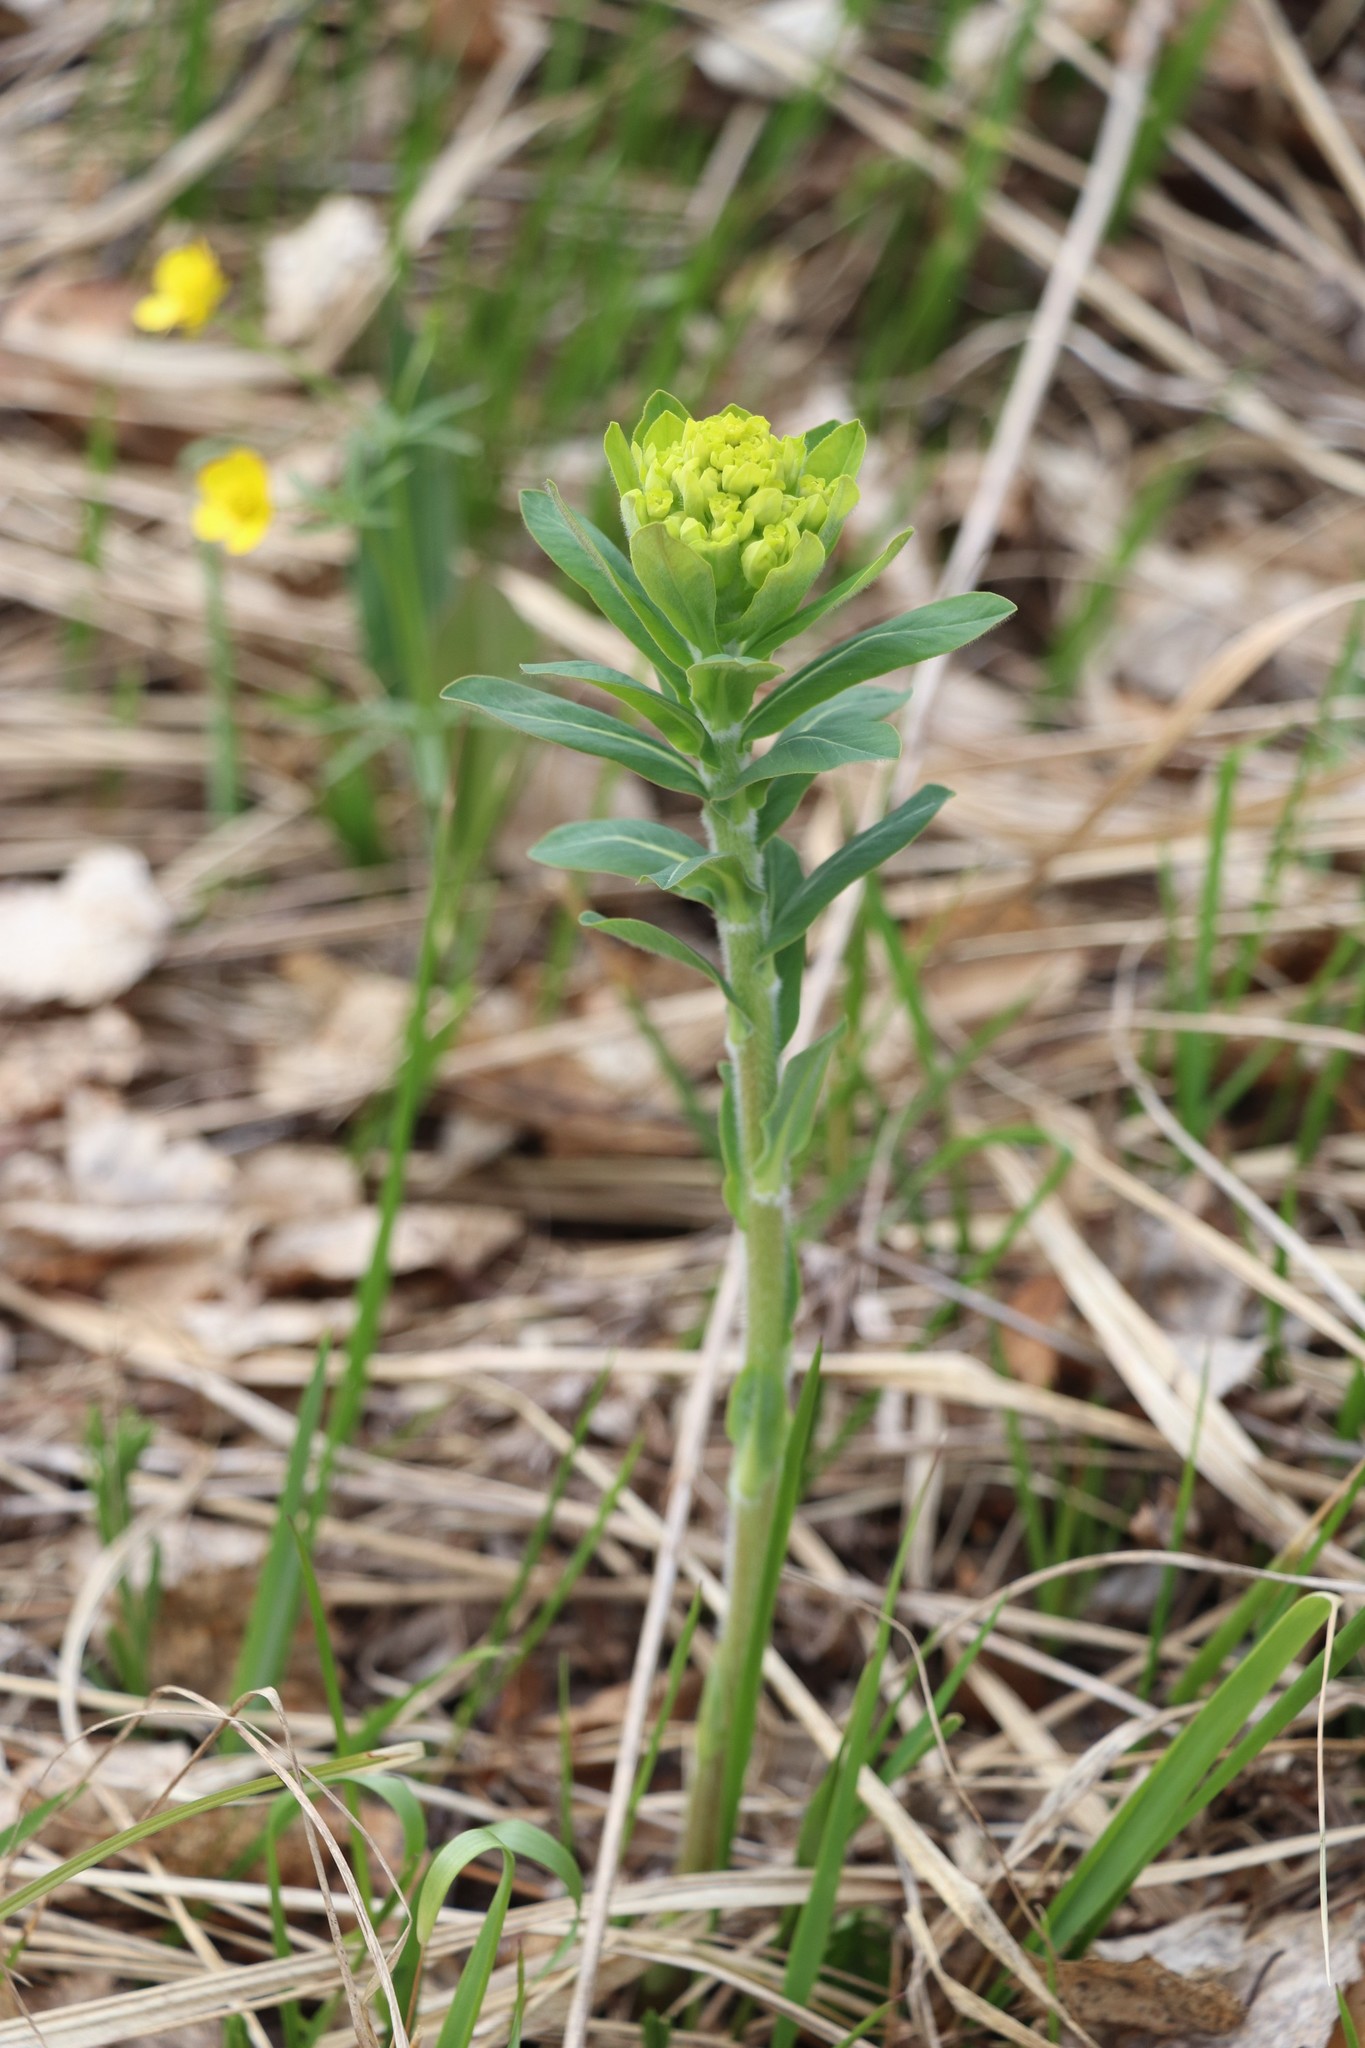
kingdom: Plantae
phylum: Tracheophyta
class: Magnoliopsida
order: Malpighiales
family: Euphorbiaceae
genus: Euphorbia
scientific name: Euphorbia pilosa
